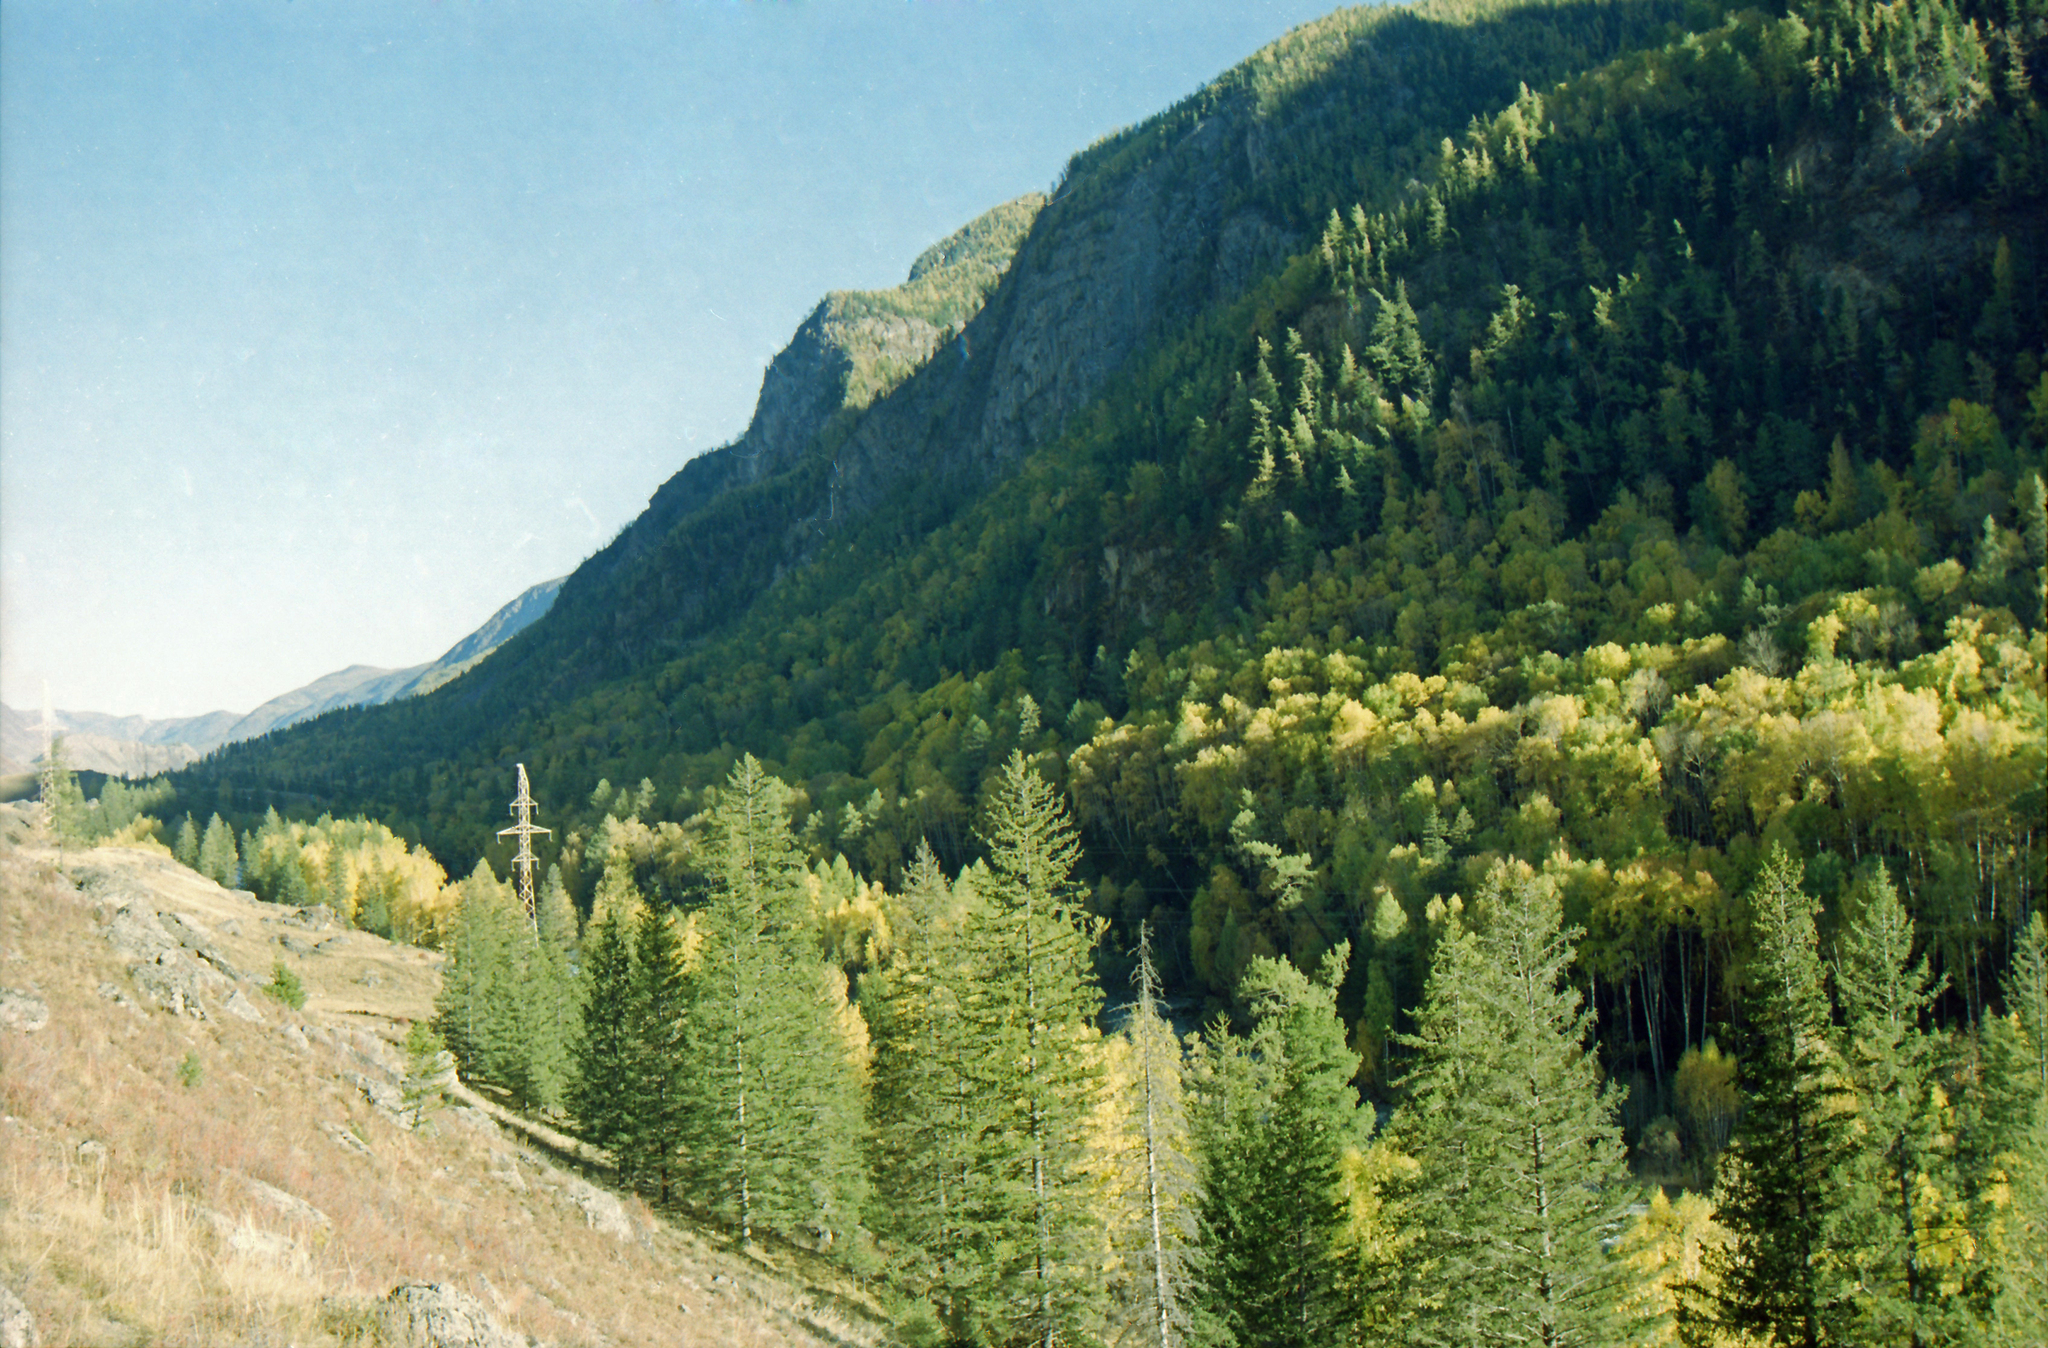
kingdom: Plantae
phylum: Tracheophyta
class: Pinopsida
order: Pinales
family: Pinaceae
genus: Picea
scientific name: Picea obovata
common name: Siberian spruce
